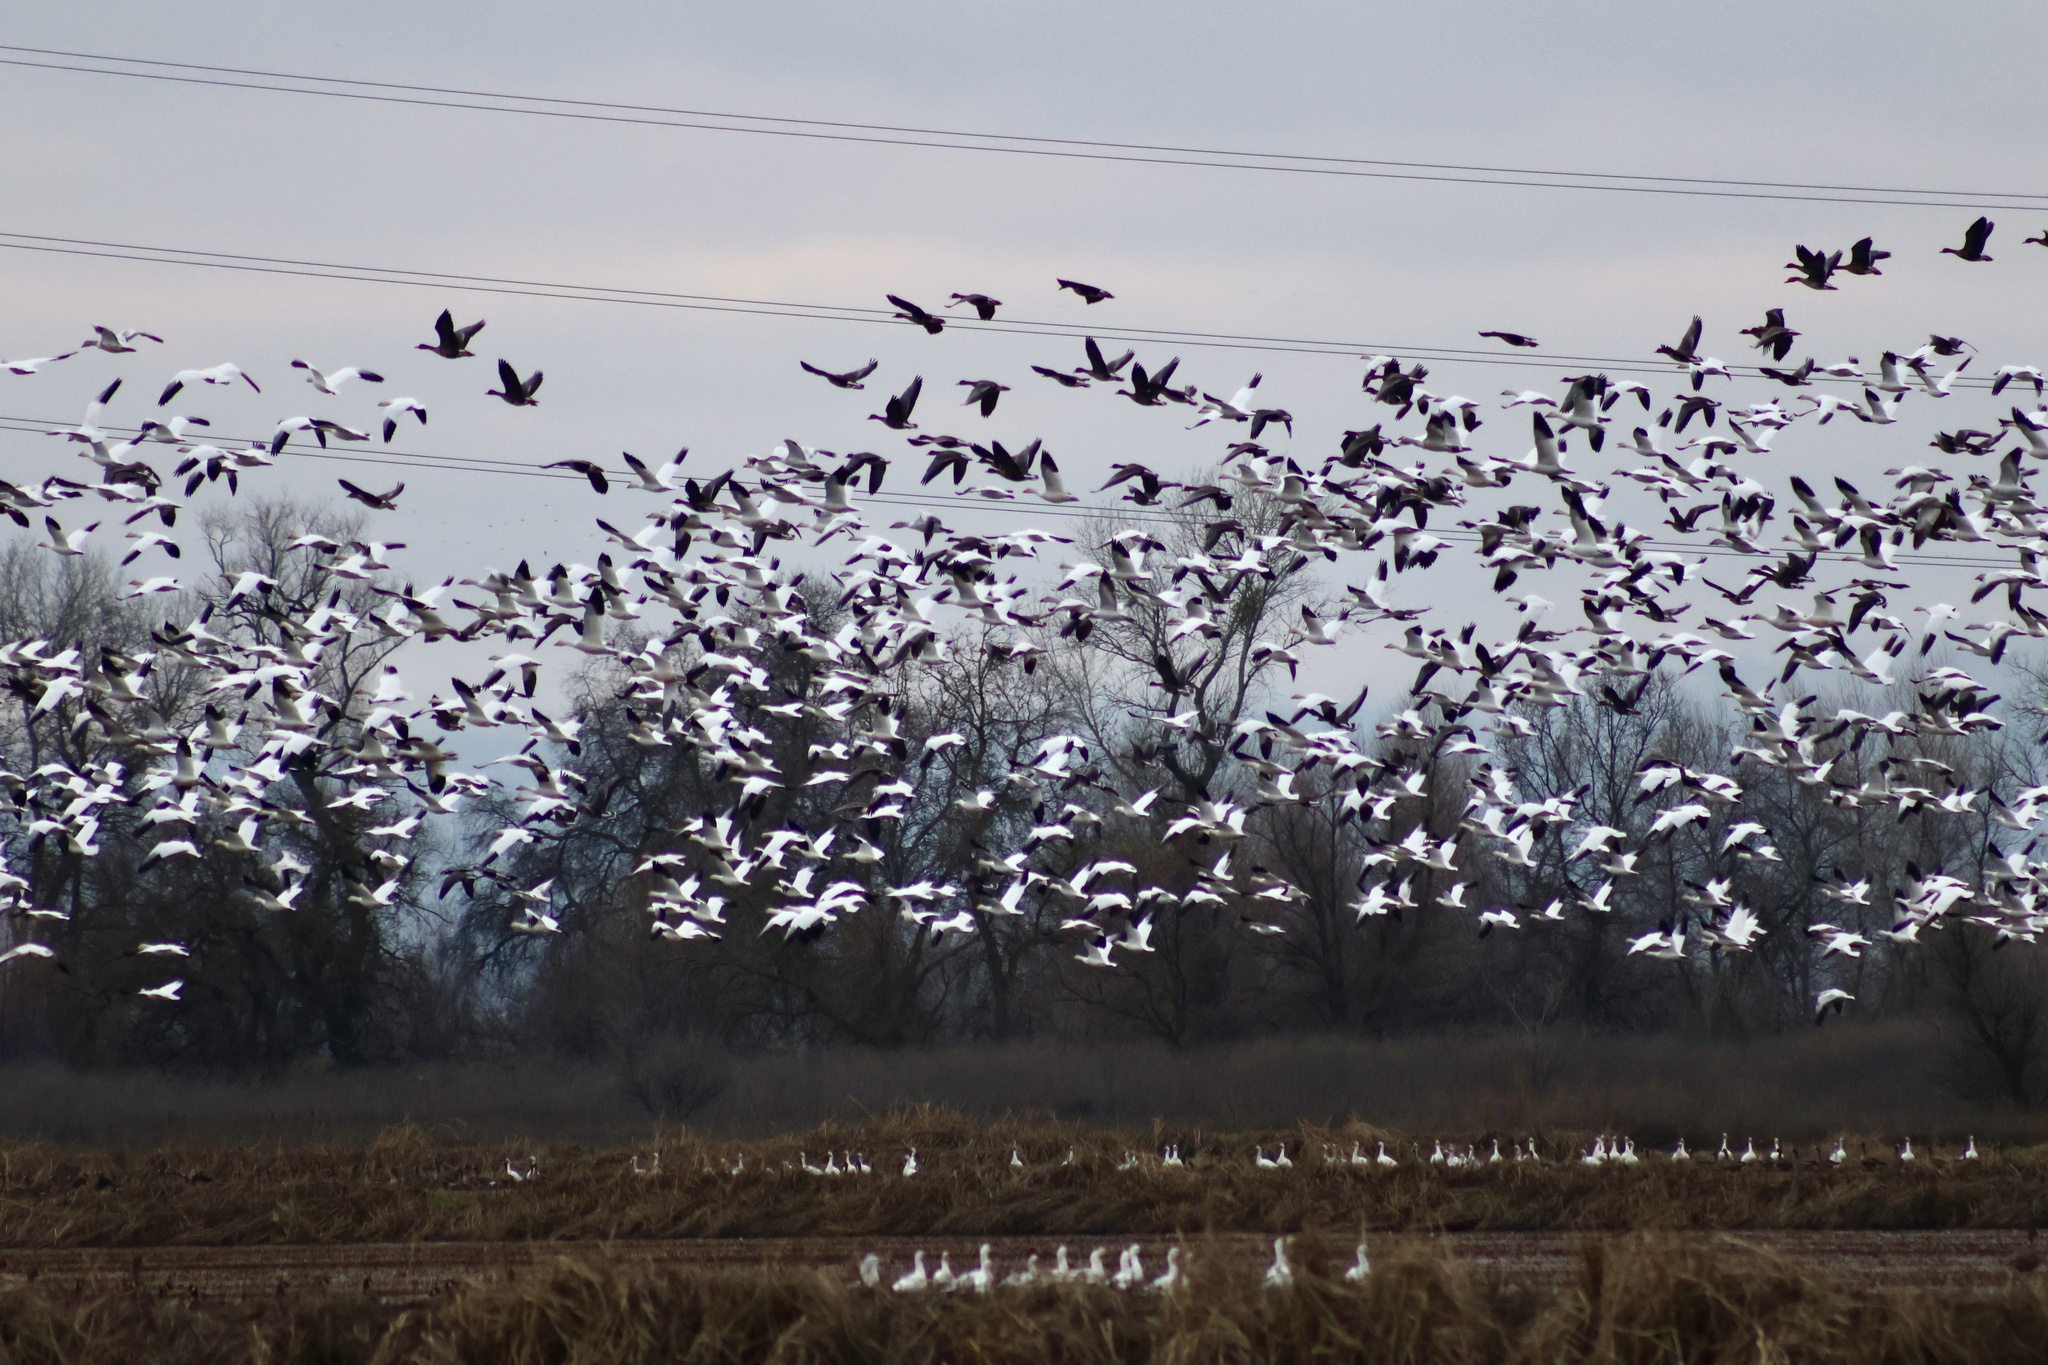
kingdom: Animalia
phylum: Chordata
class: Aves
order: Anseriformes
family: Anatidae
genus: Anser
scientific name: Anser caerulescens
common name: Snow goose
